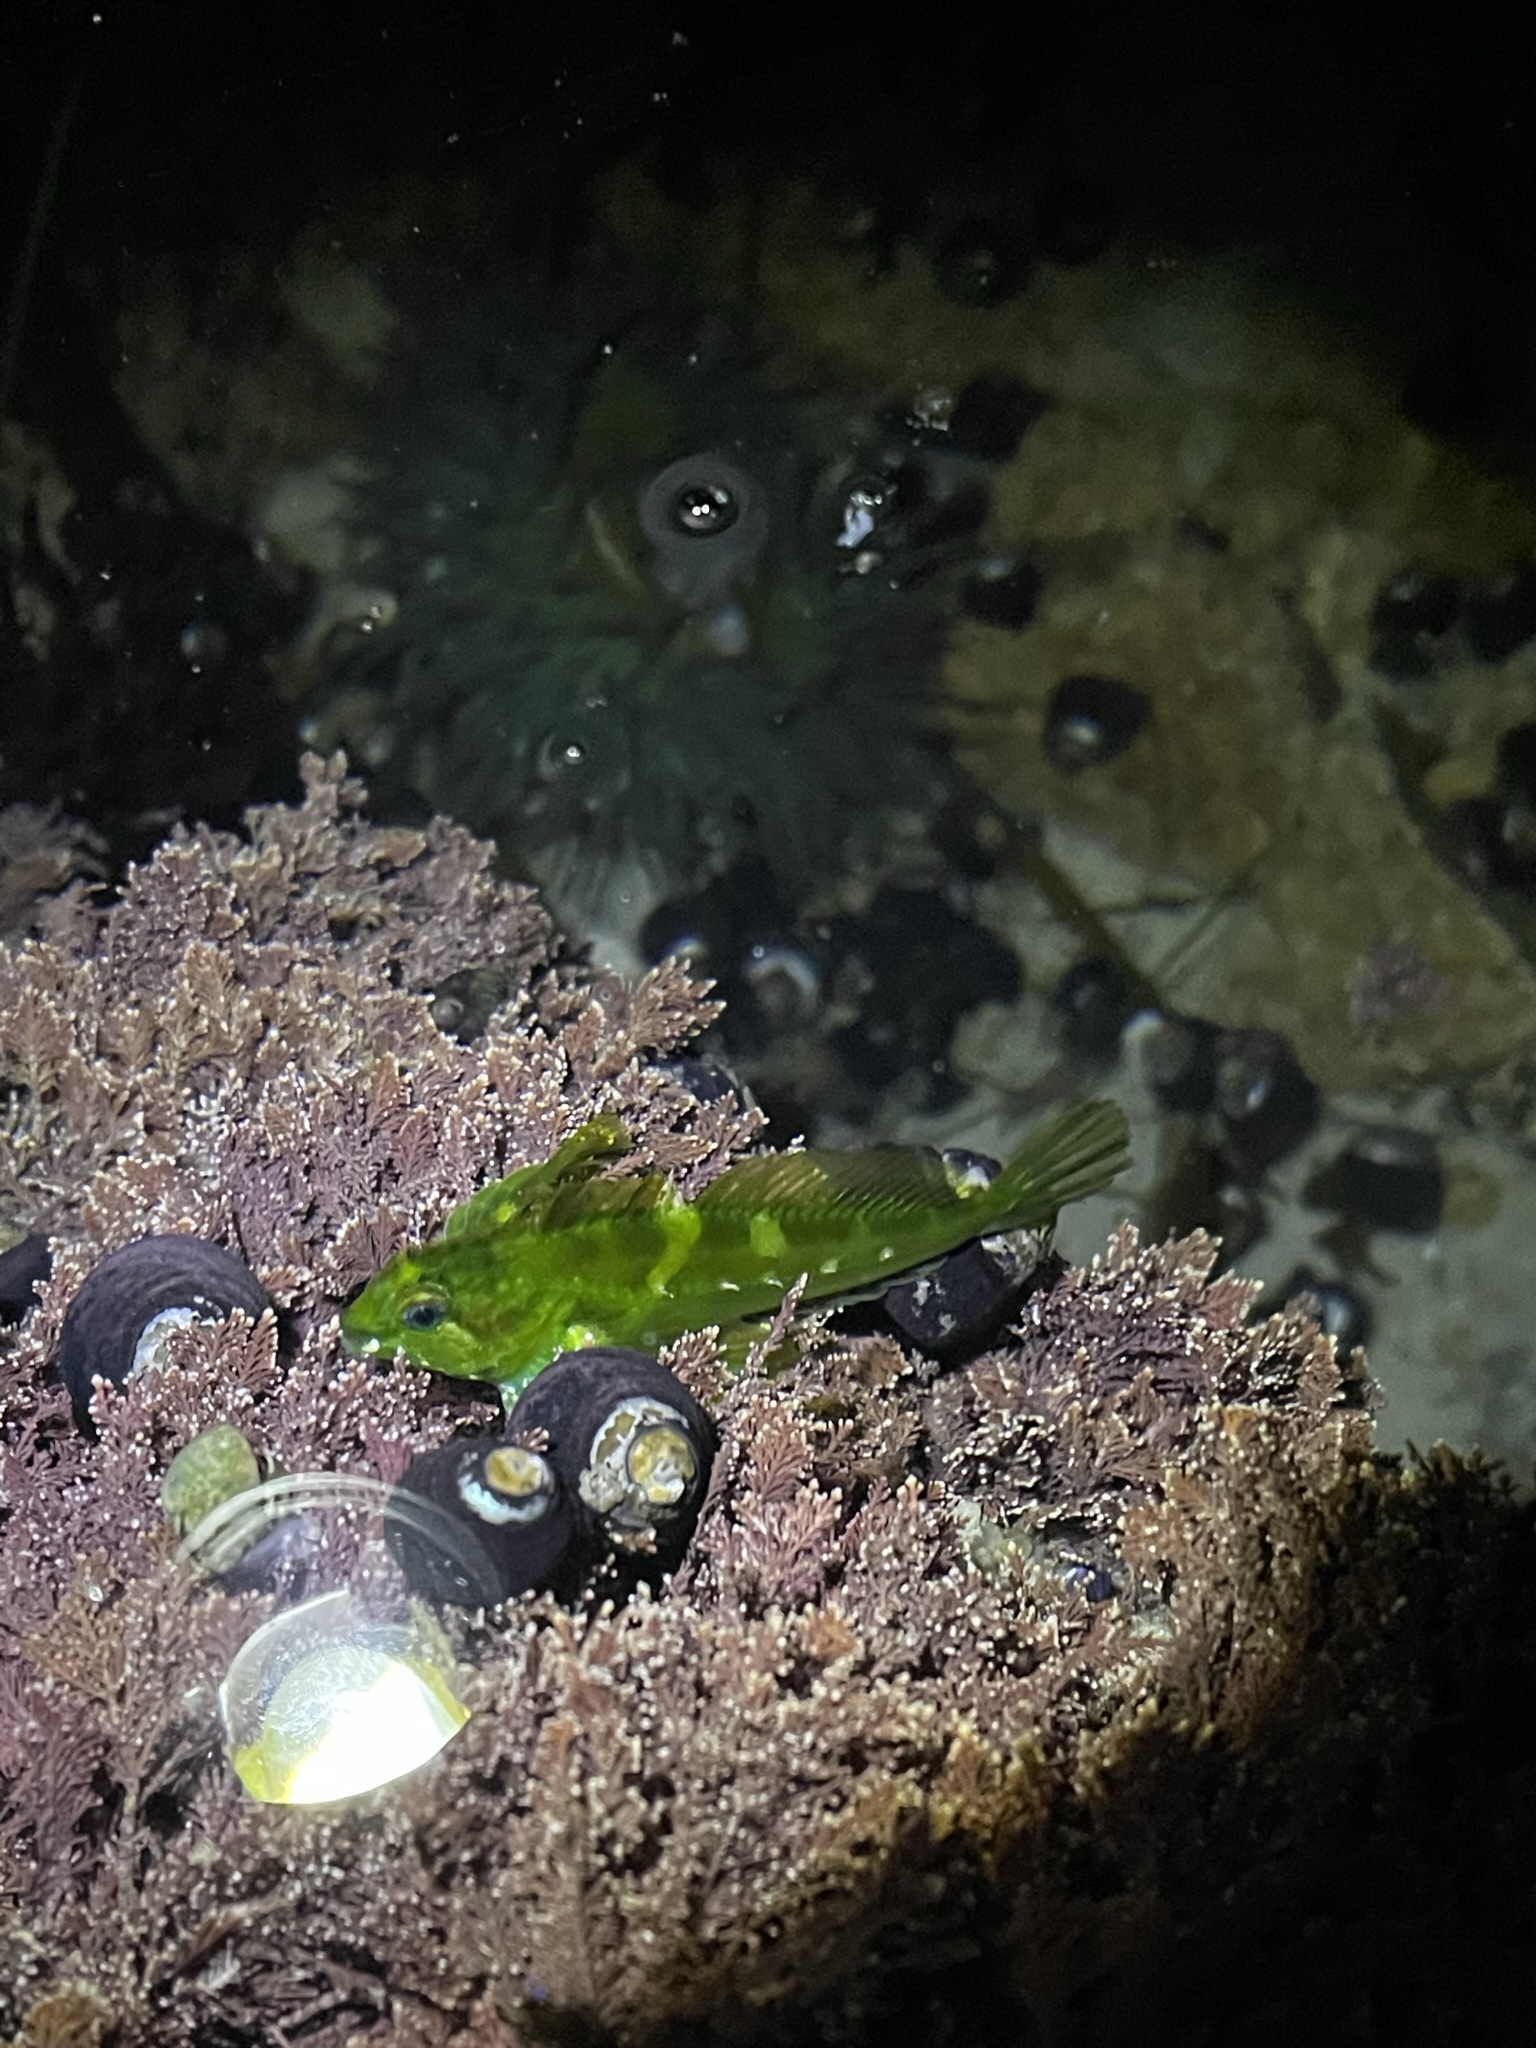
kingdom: Animalia
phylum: Chordata
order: Scorpaeniformes
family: Cottidae
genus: Oligocottus
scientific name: Oligocottus snyderi
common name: Fluffy sculpin
